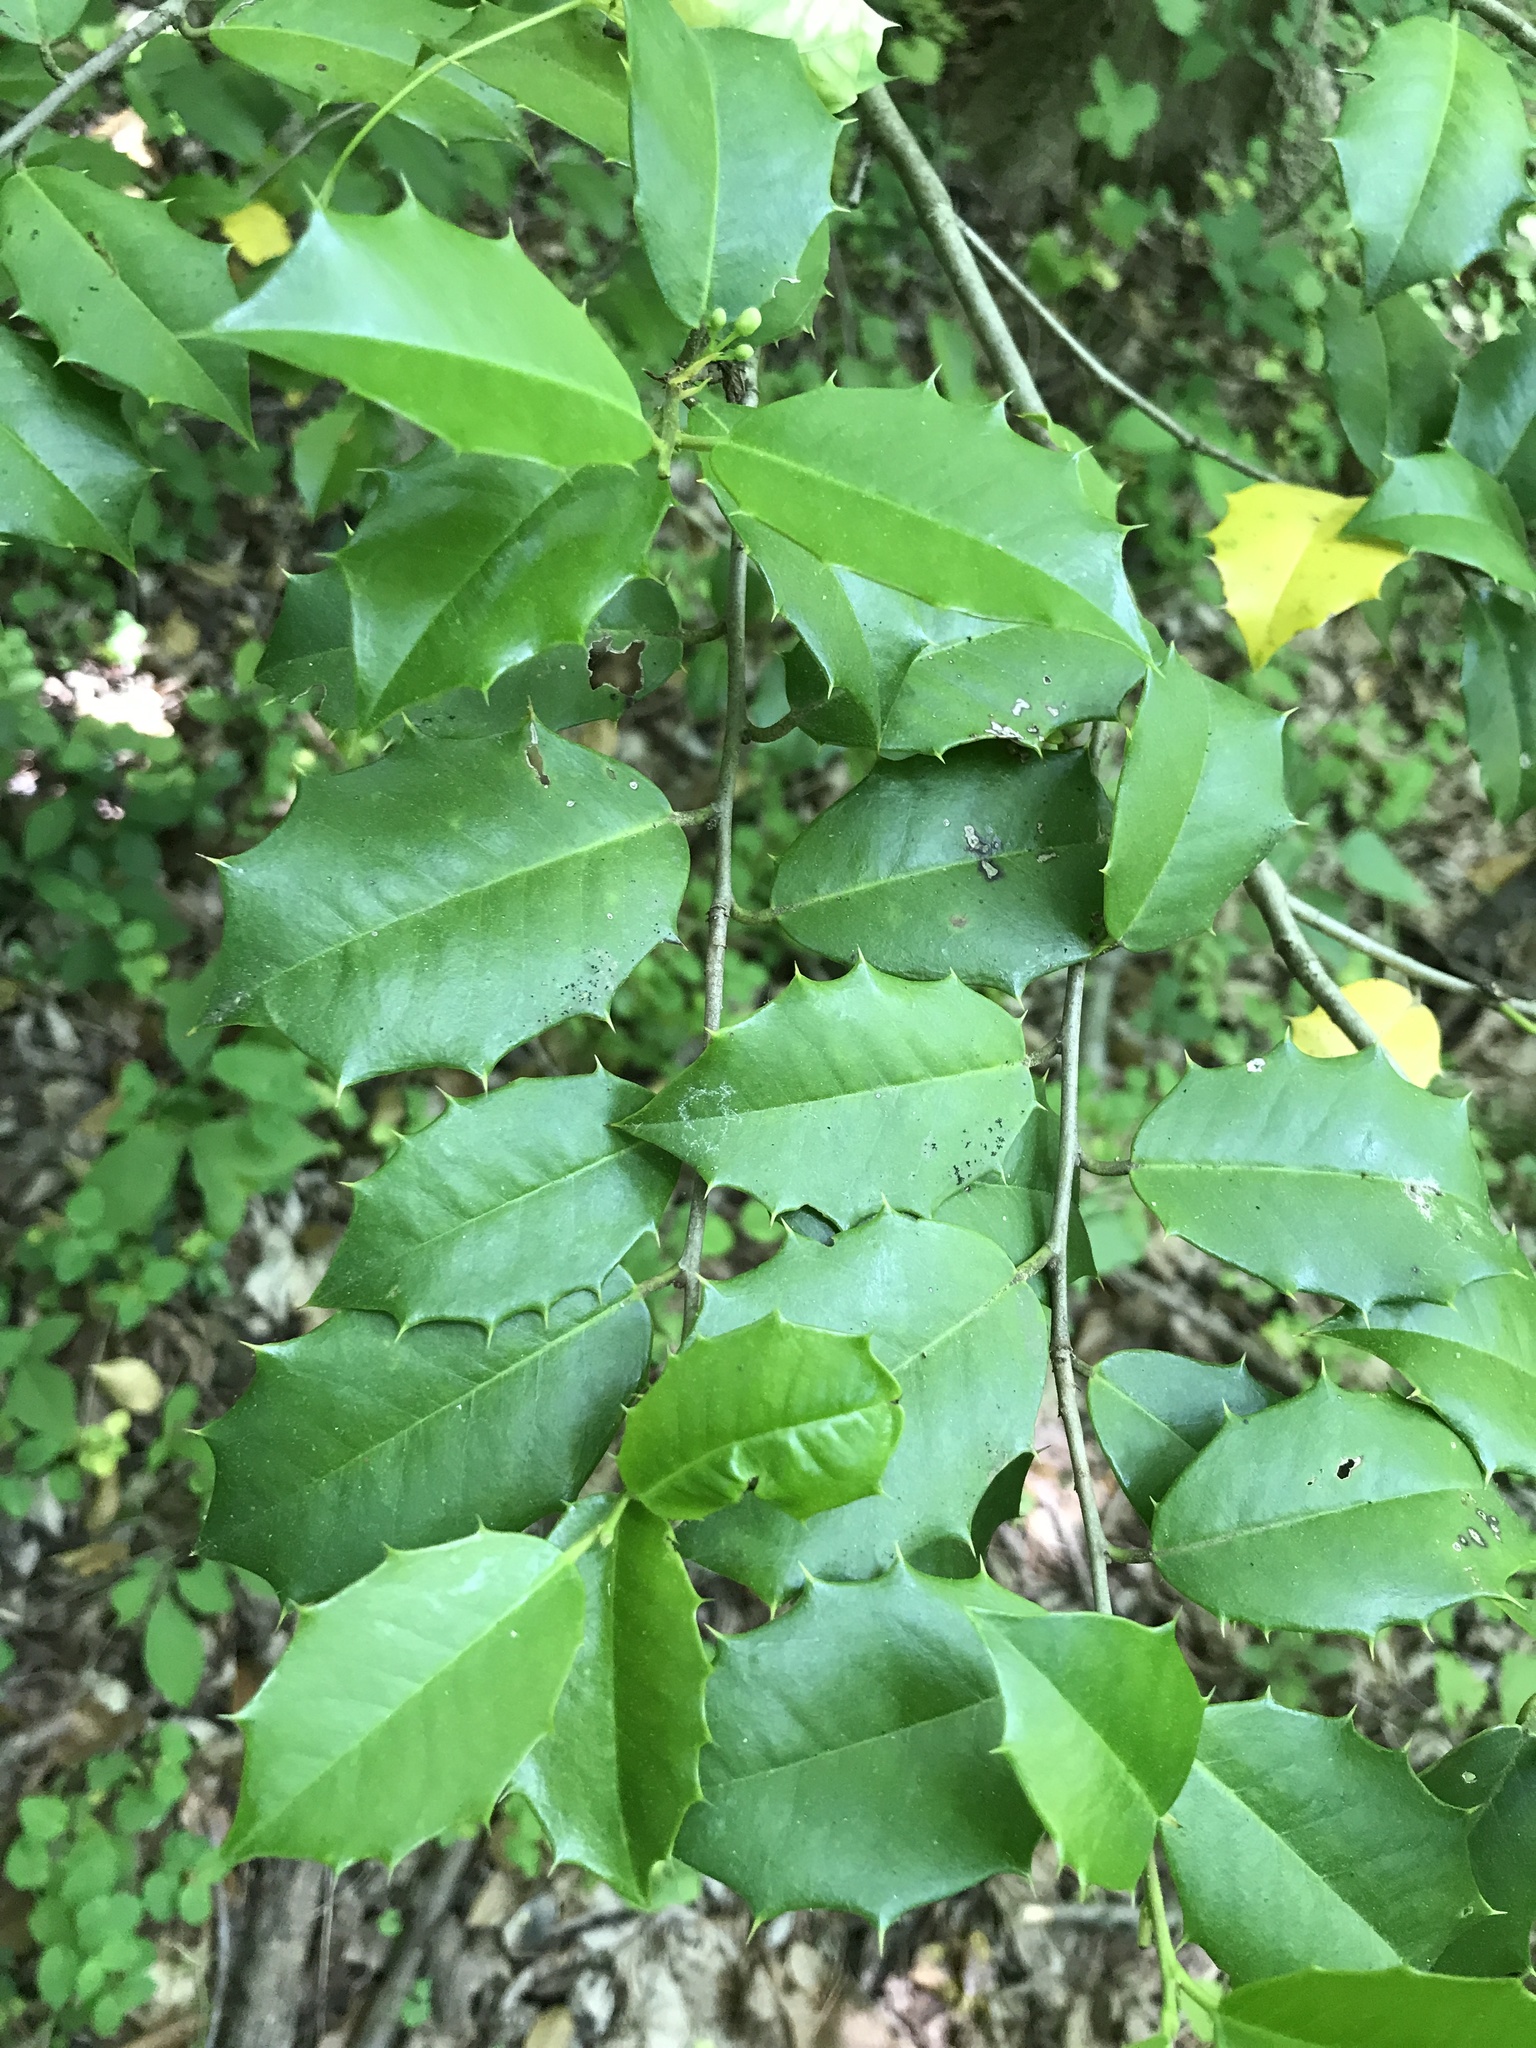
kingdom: Plantae
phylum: Tracheophyta
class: Magnoliopsida
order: Aquifoliales
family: Aquifoliaceae
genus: Ilex
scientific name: Ilex opaca
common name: American holly
